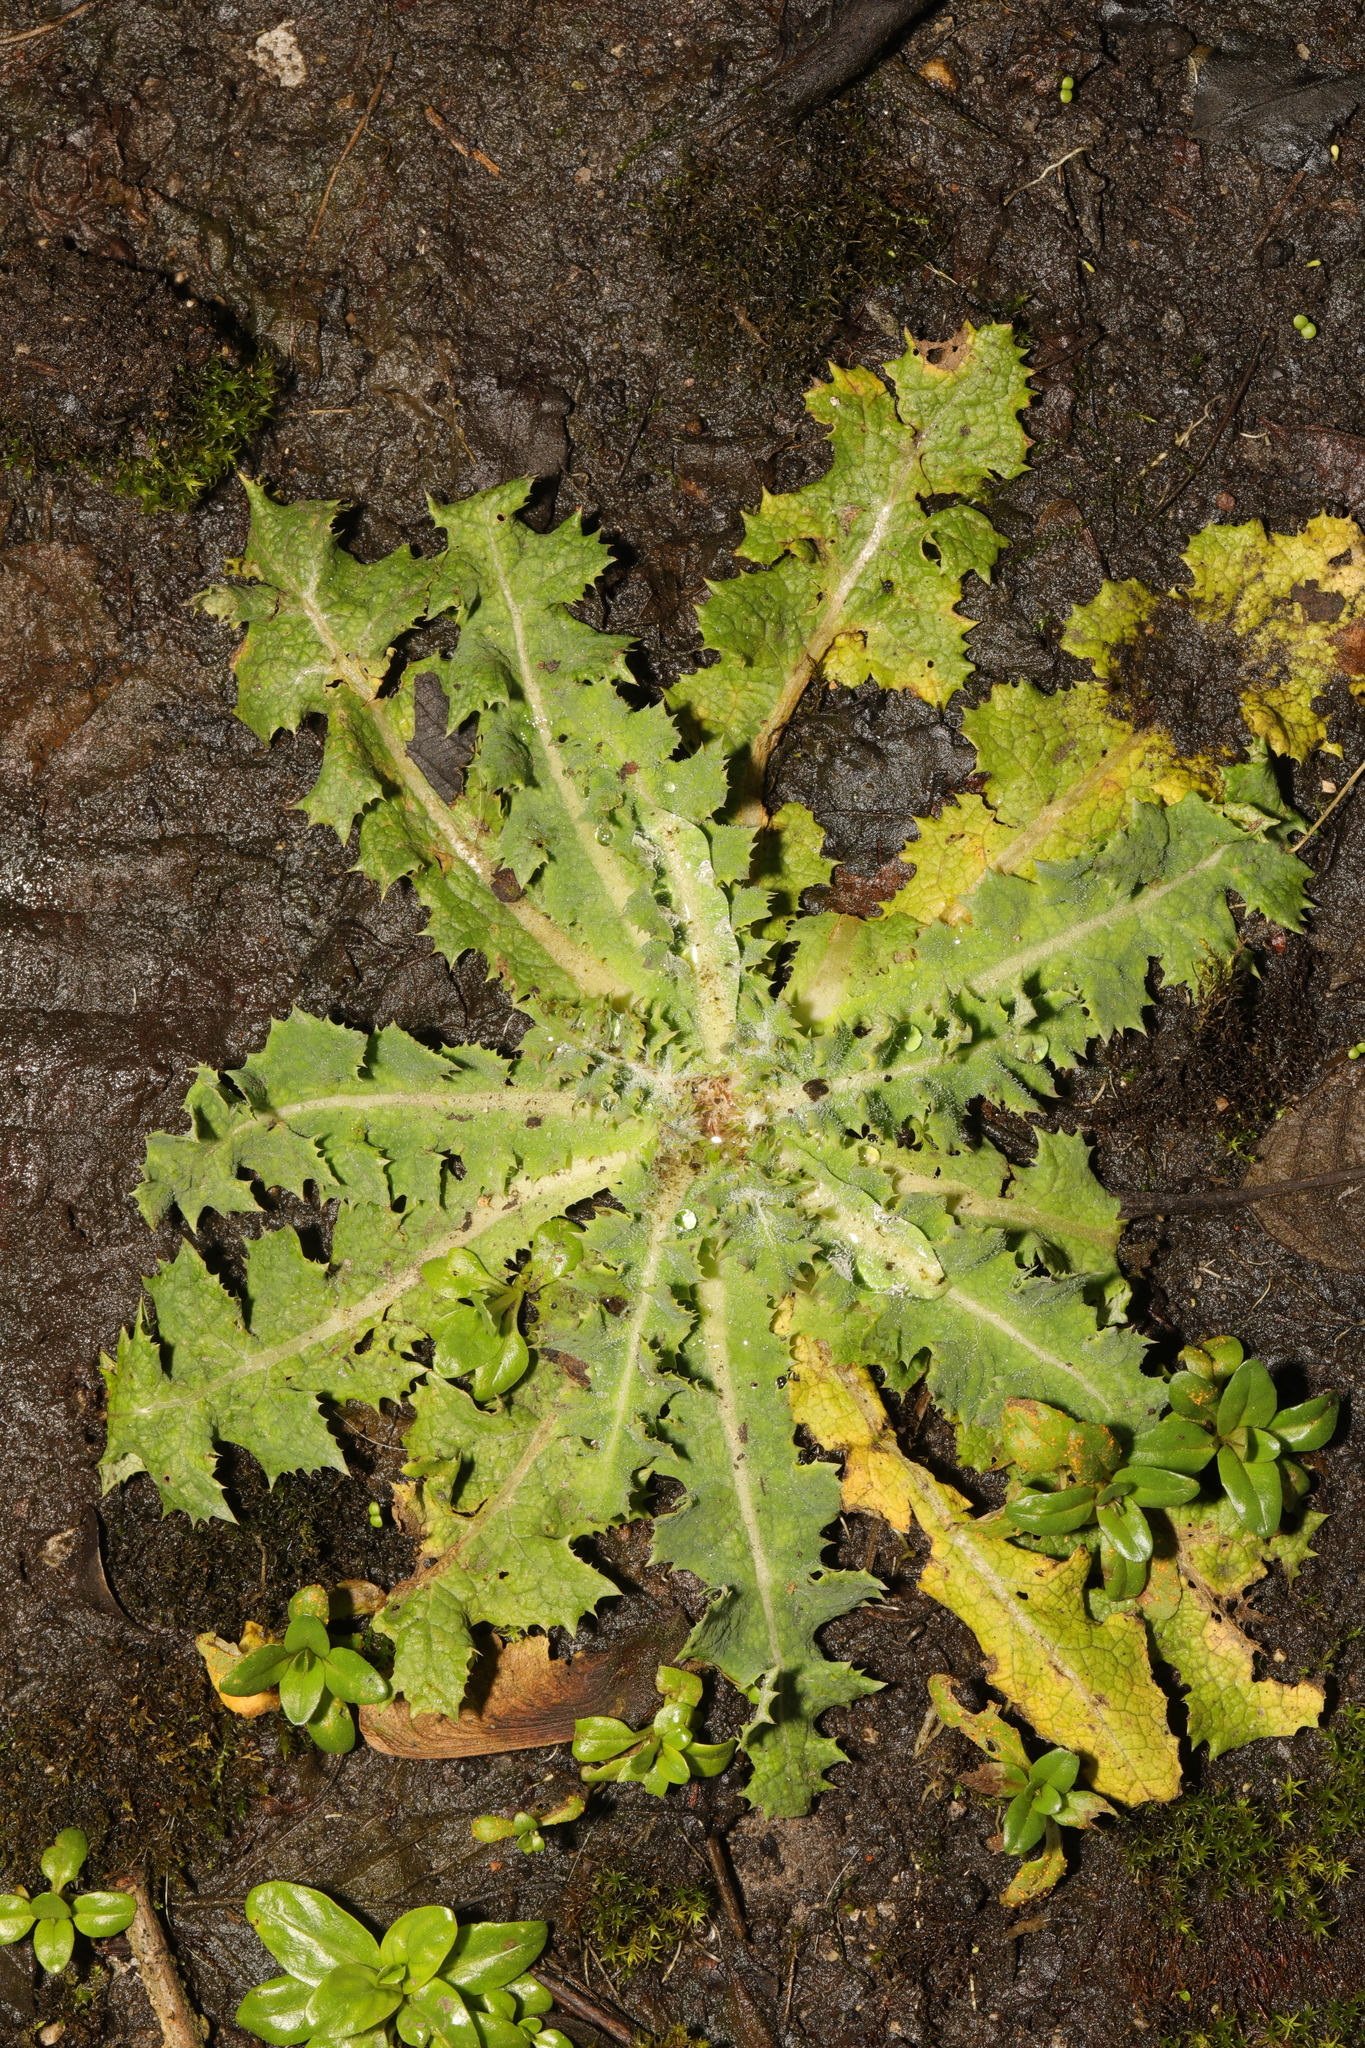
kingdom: Plantae
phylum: Tracheophyta
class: Magnoliopsida
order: Asterales
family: Asteraceae
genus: Sonchus
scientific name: Sonchus asper
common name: Prickly sow-thistle
